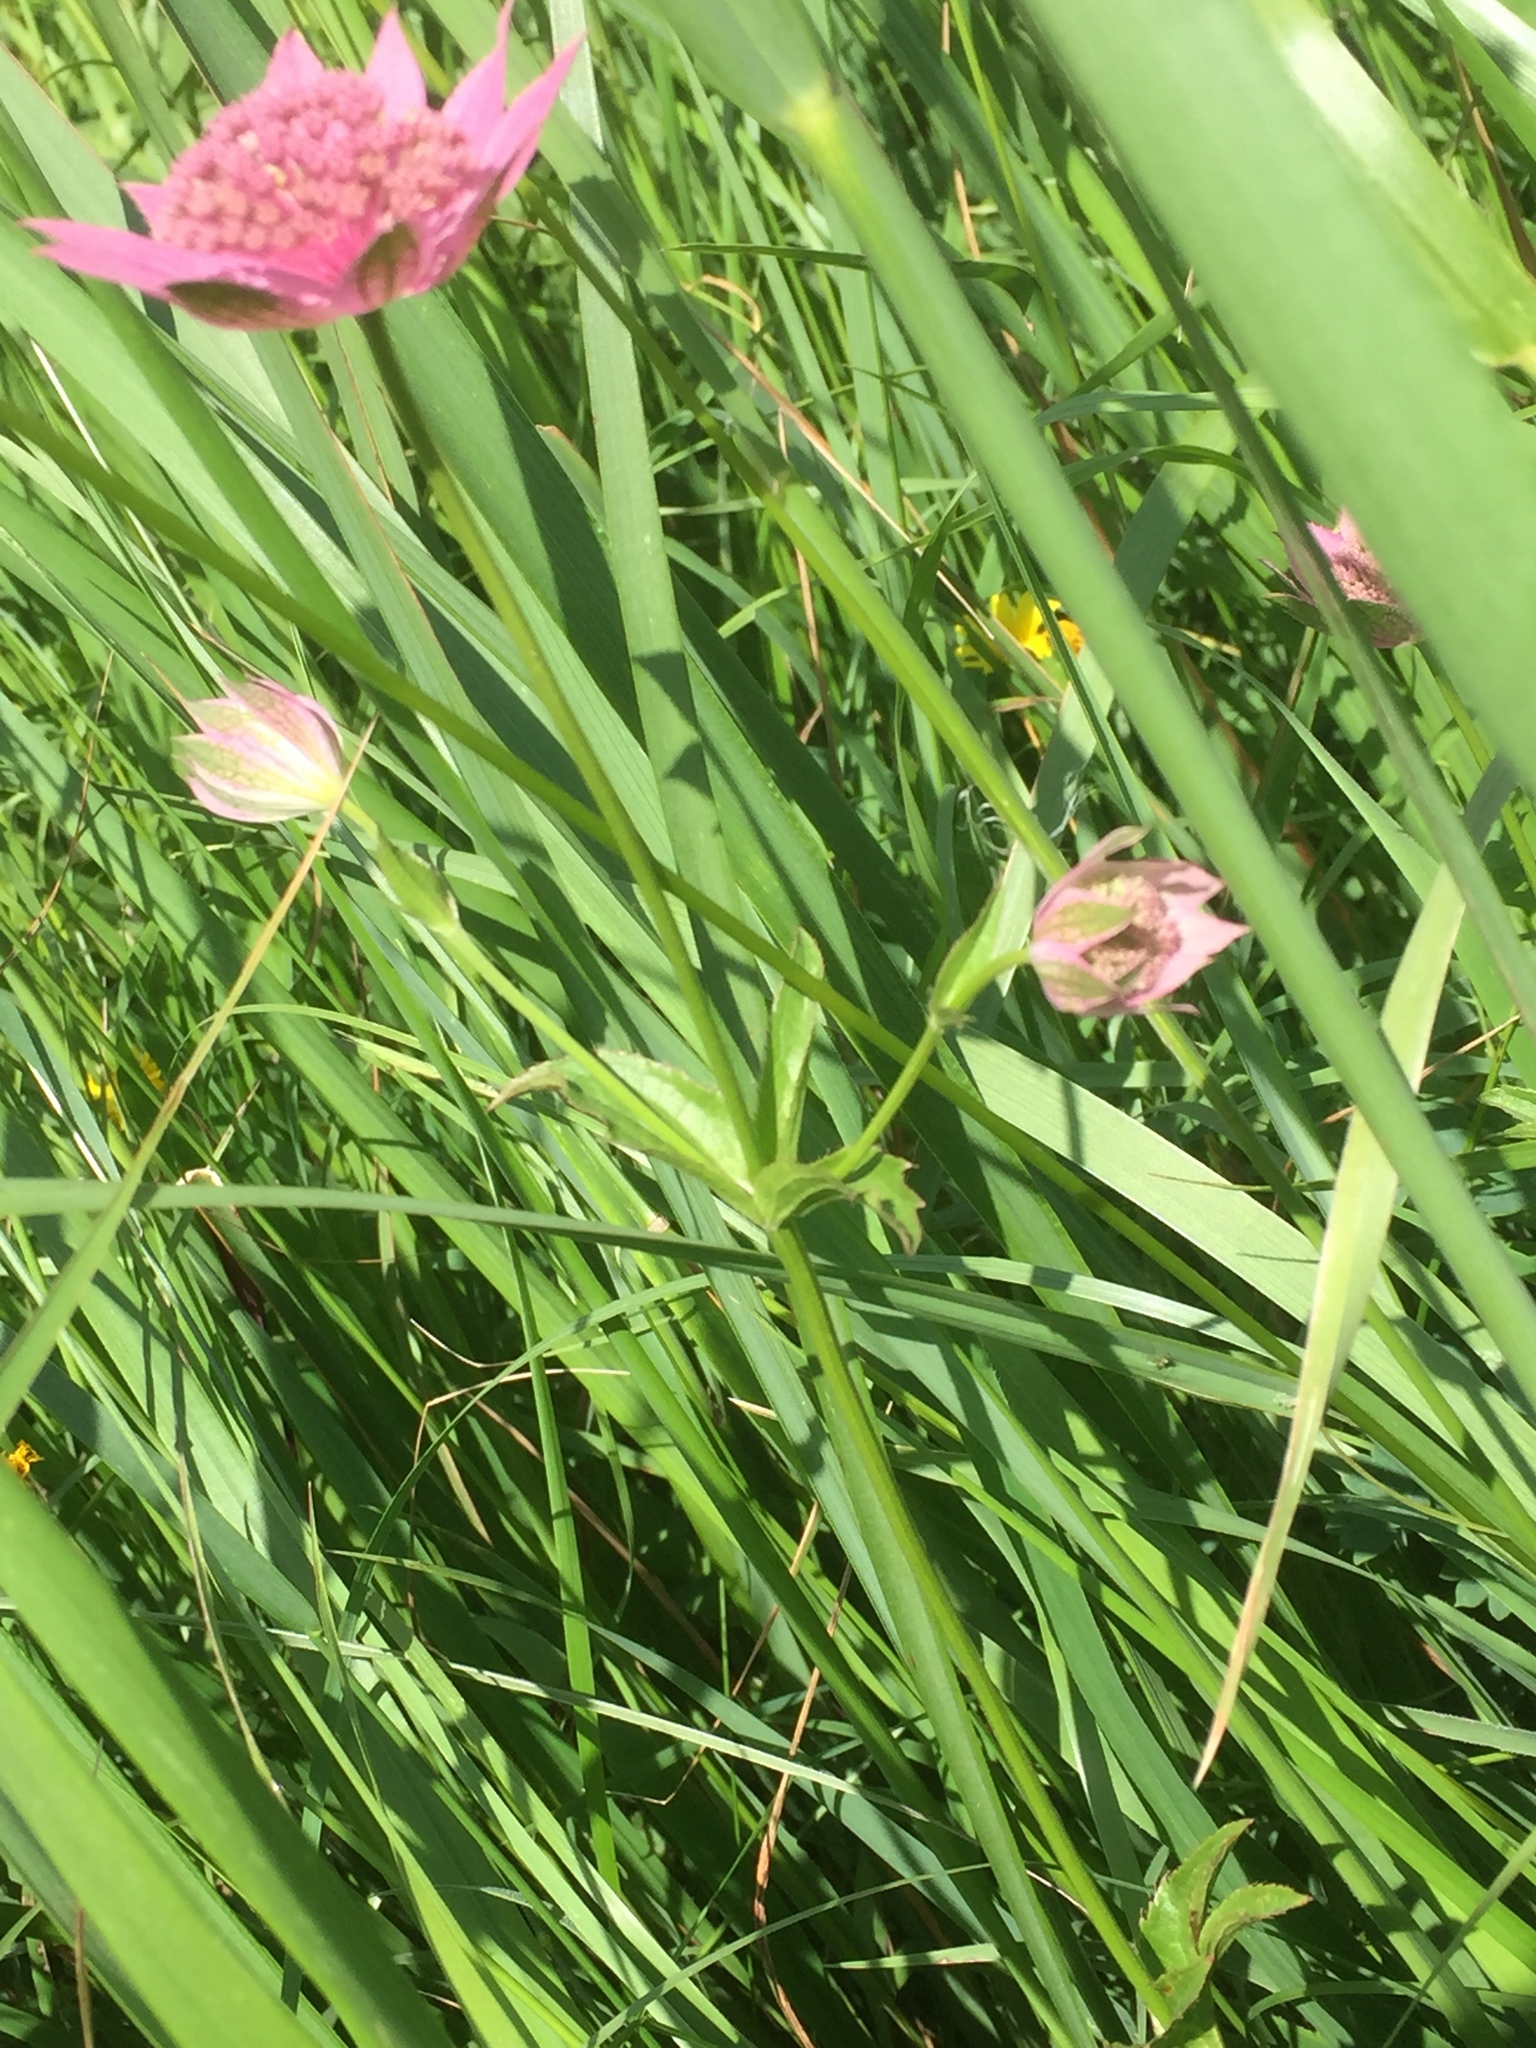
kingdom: Plantae
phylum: Tracheophyta
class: Magnoliopsida
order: Apiales
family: Apiaceae
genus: Astrantia
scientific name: Astrantia maxima
